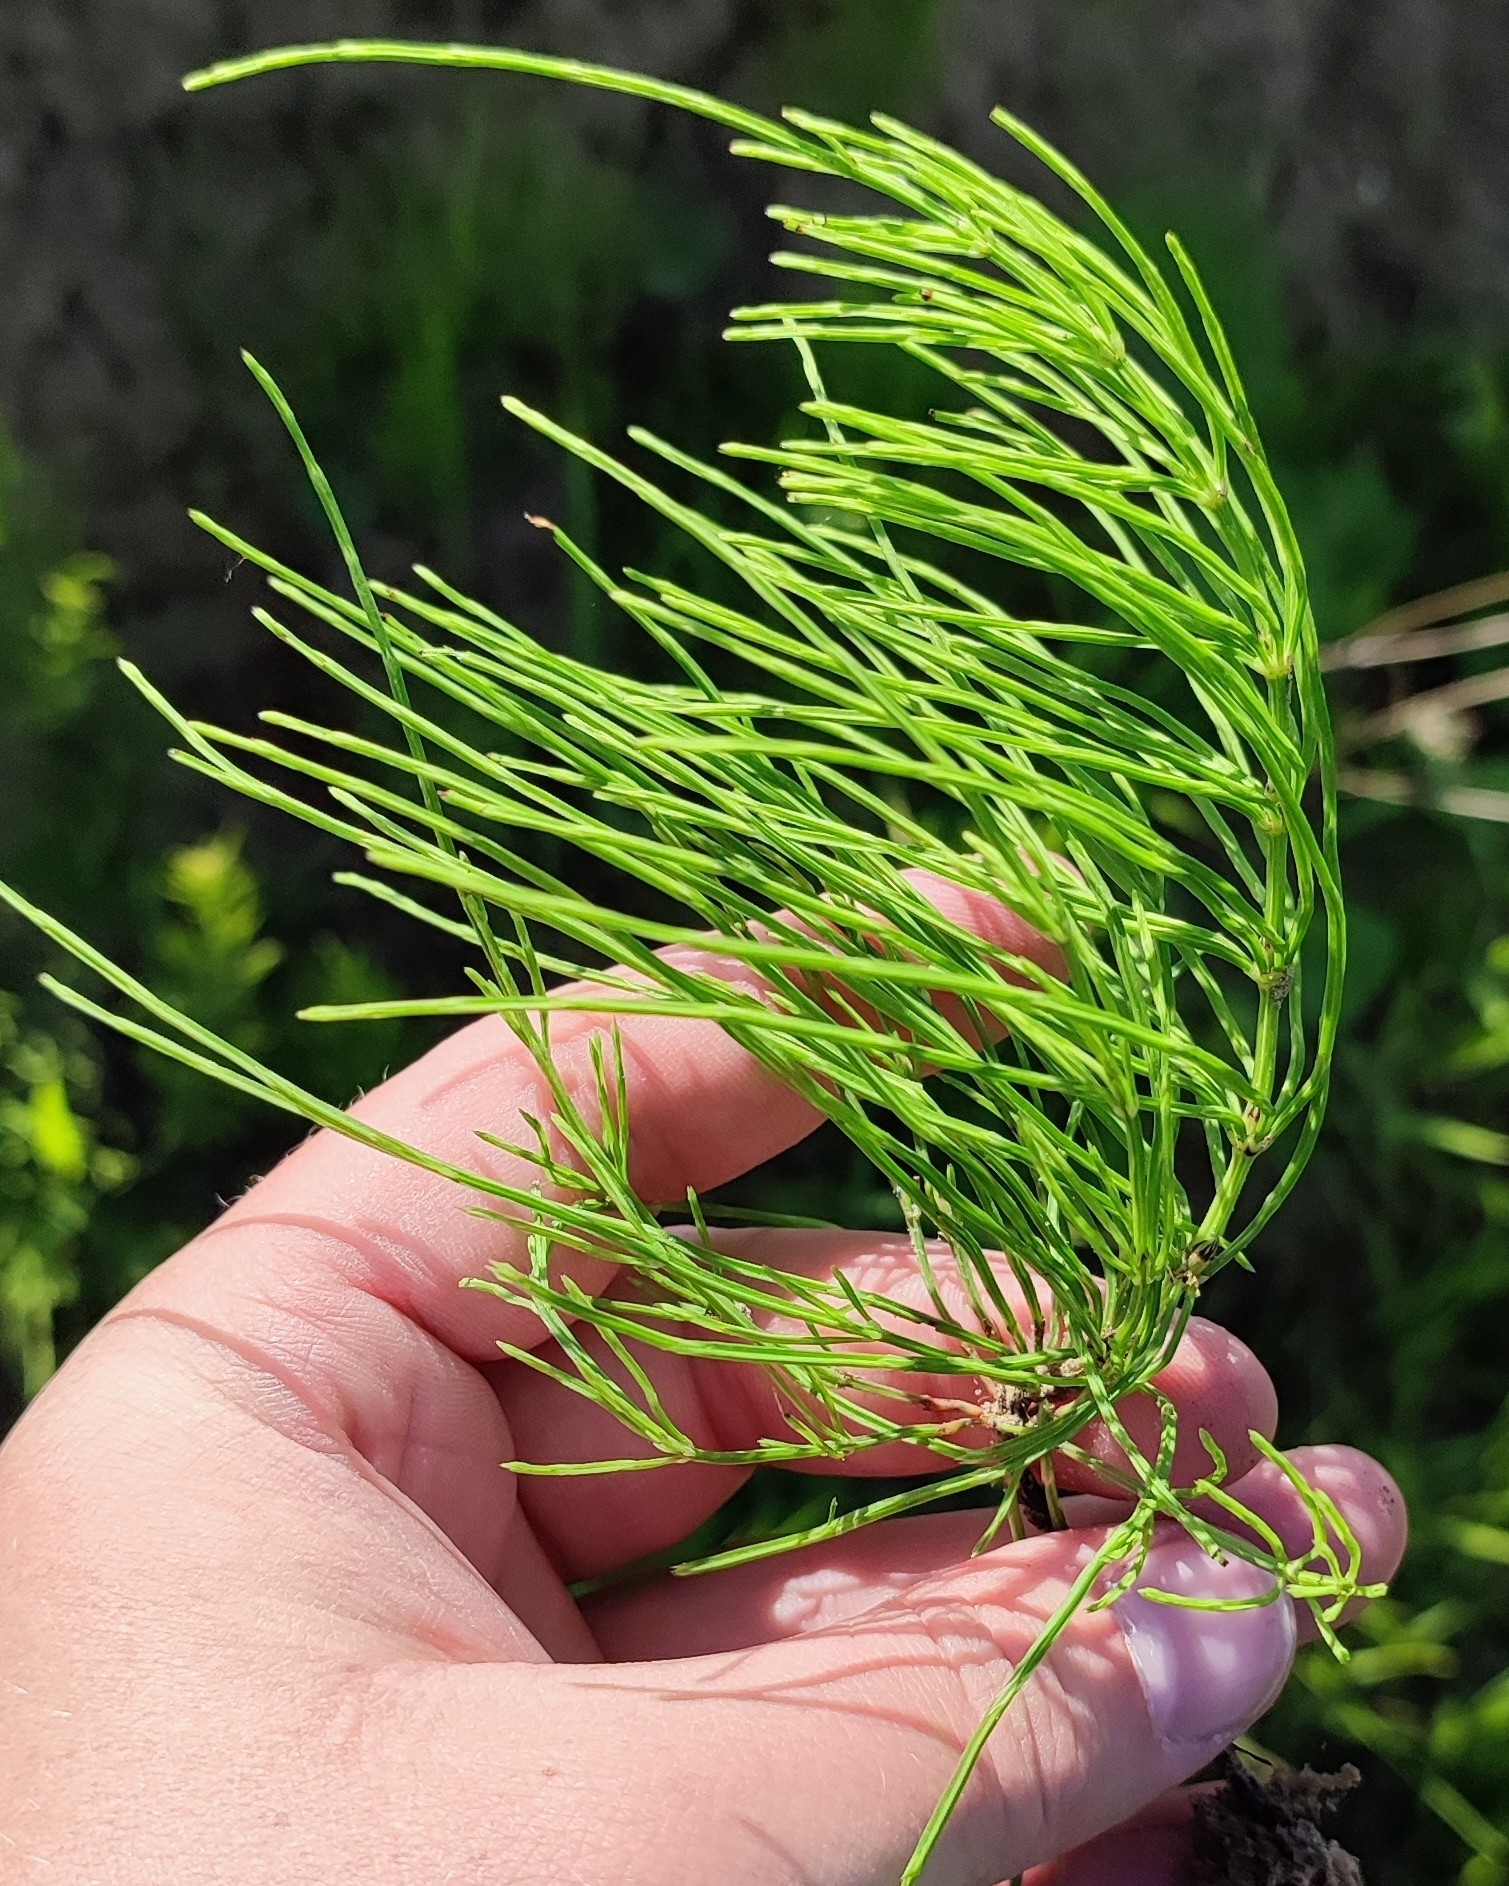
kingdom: Plantae
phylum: Tracheophyta
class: Polypodiopsida
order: Equisetales
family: Equisetaceae
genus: Equisetum
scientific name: Equisetum arvense
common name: Field horsetail
